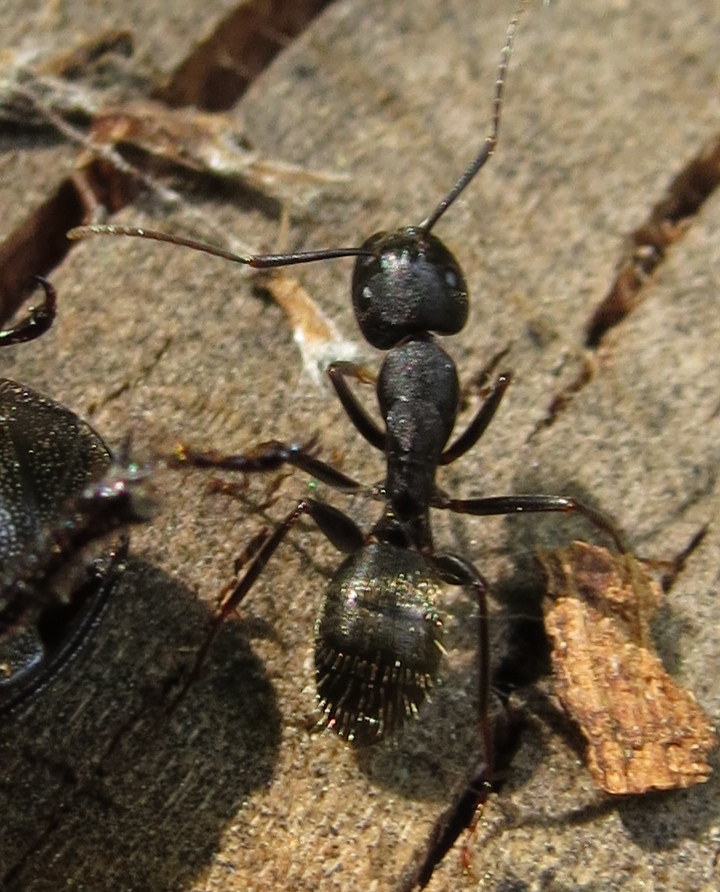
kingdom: Animalia
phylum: Arthropoda
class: Insecta
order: Hymenoptera
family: Formicidae
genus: Camponotus
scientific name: Camponotus pennsylvanicus
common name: Black carpenter ant
